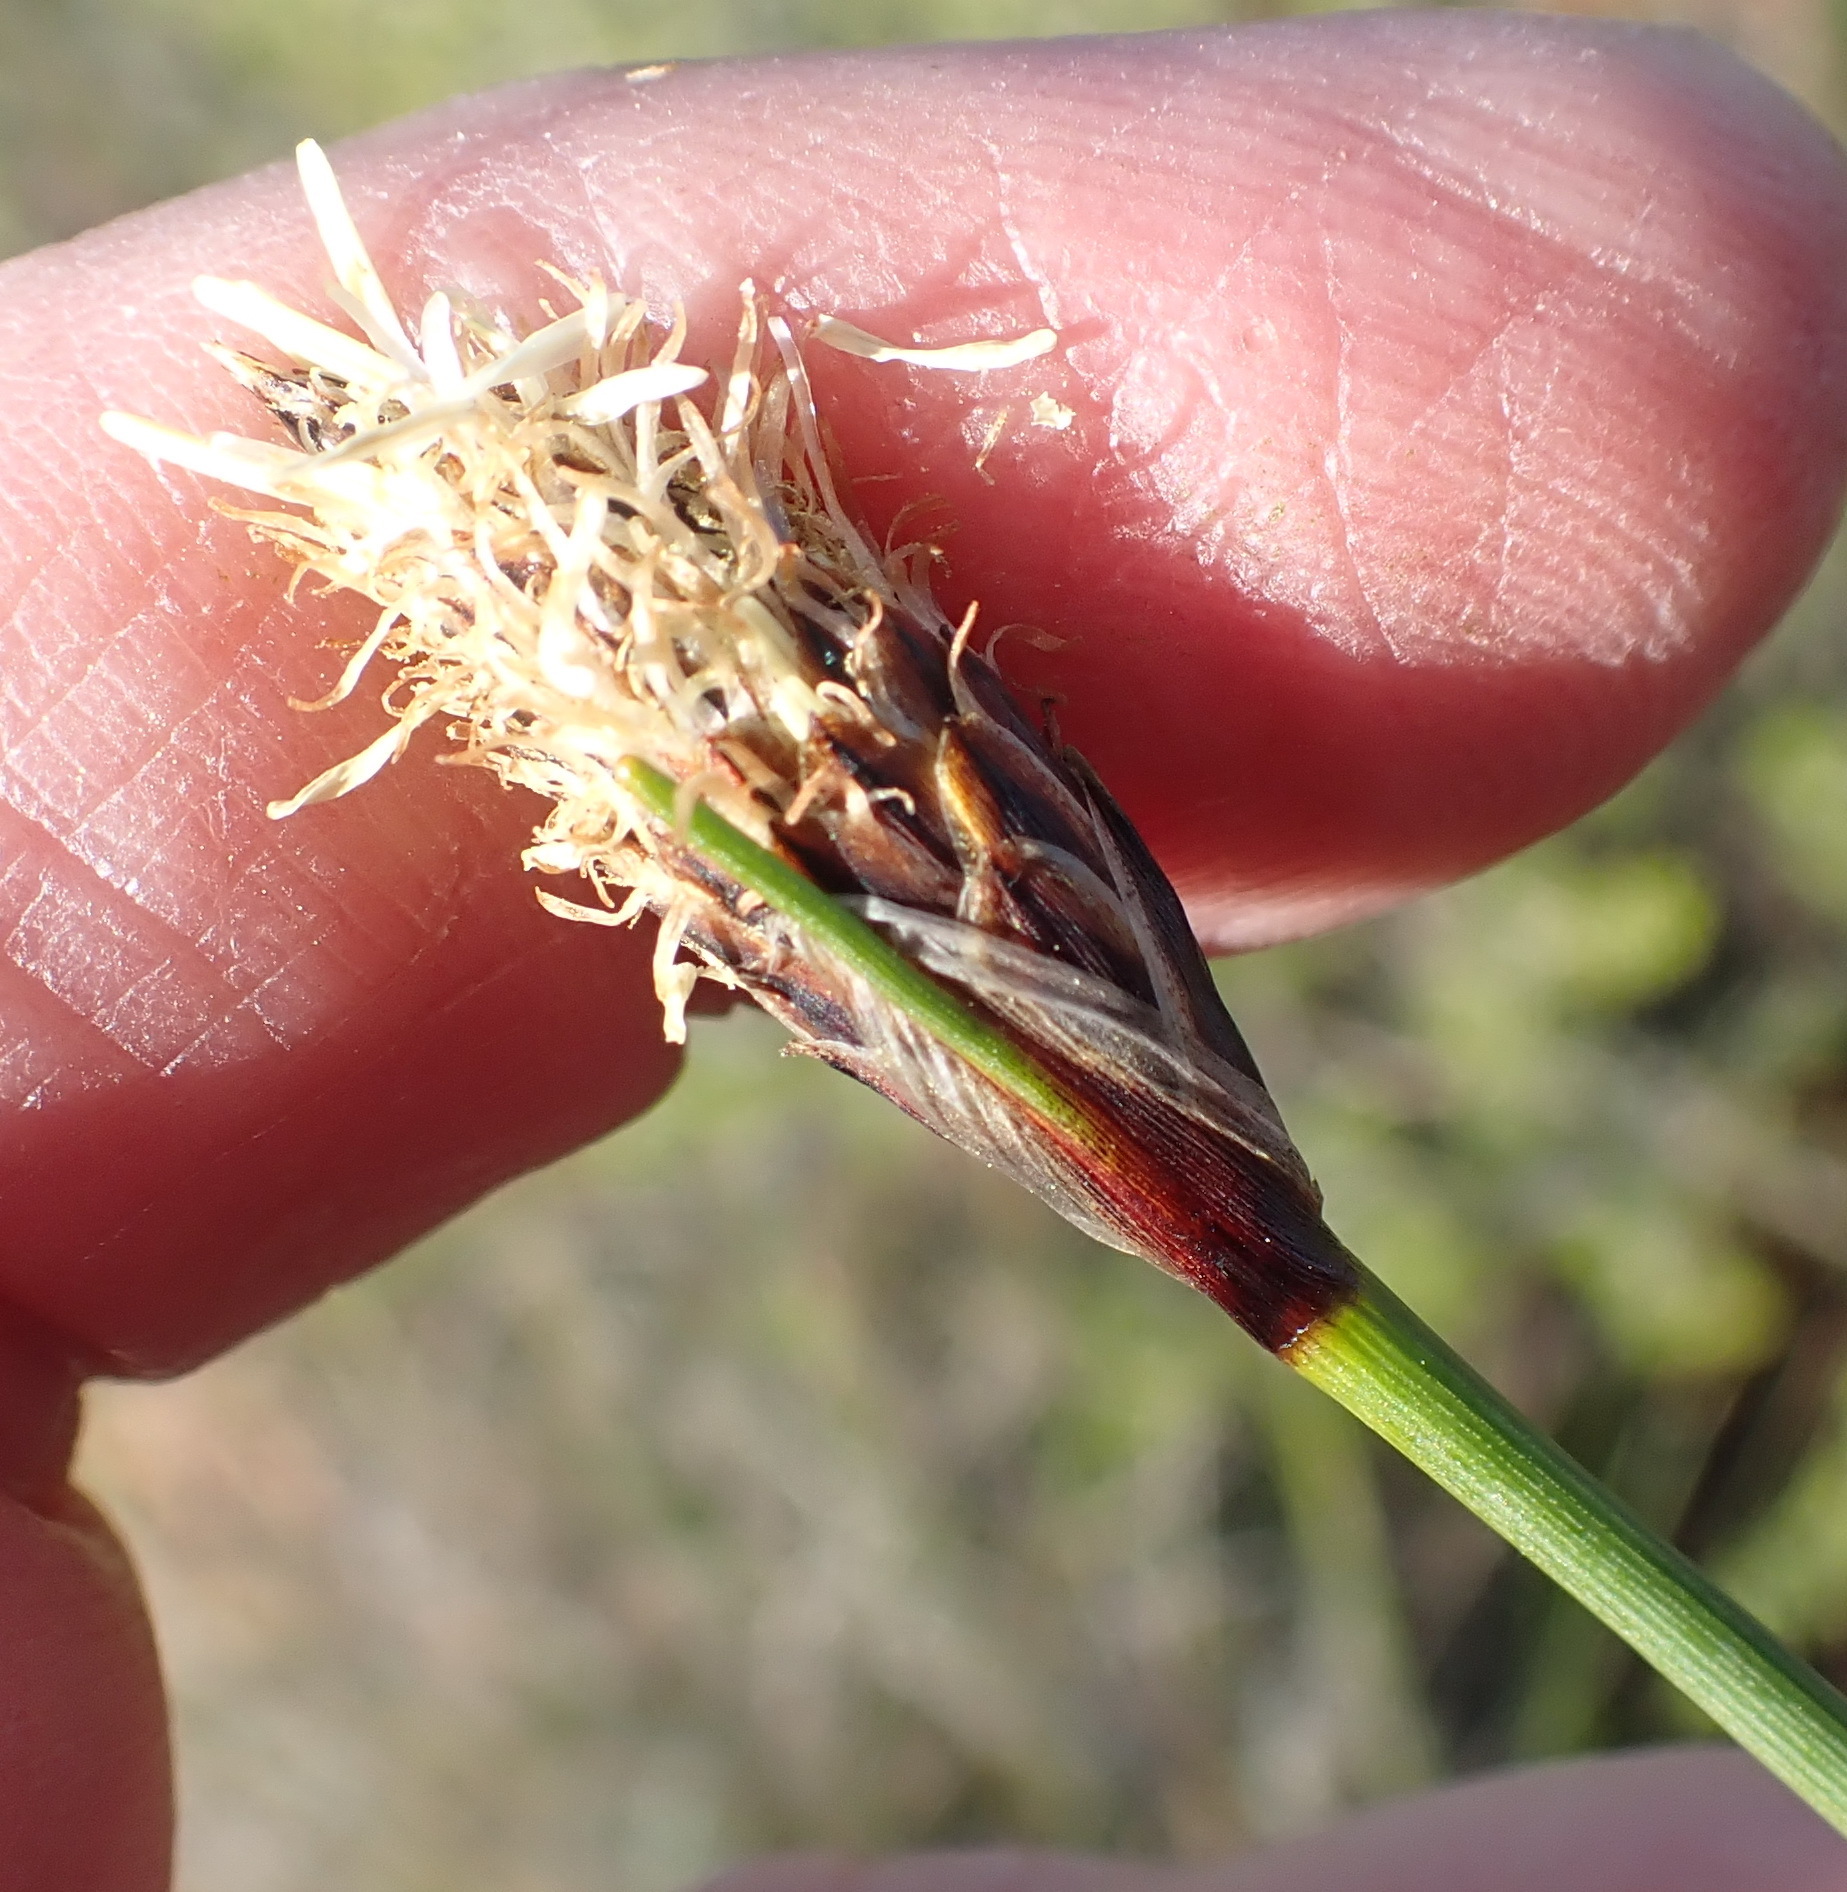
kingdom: Plantae
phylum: Tracheophyta
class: Liliopsida
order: Poales
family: Cyperaceae
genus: Ficinia
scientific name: Ficinia deusta
